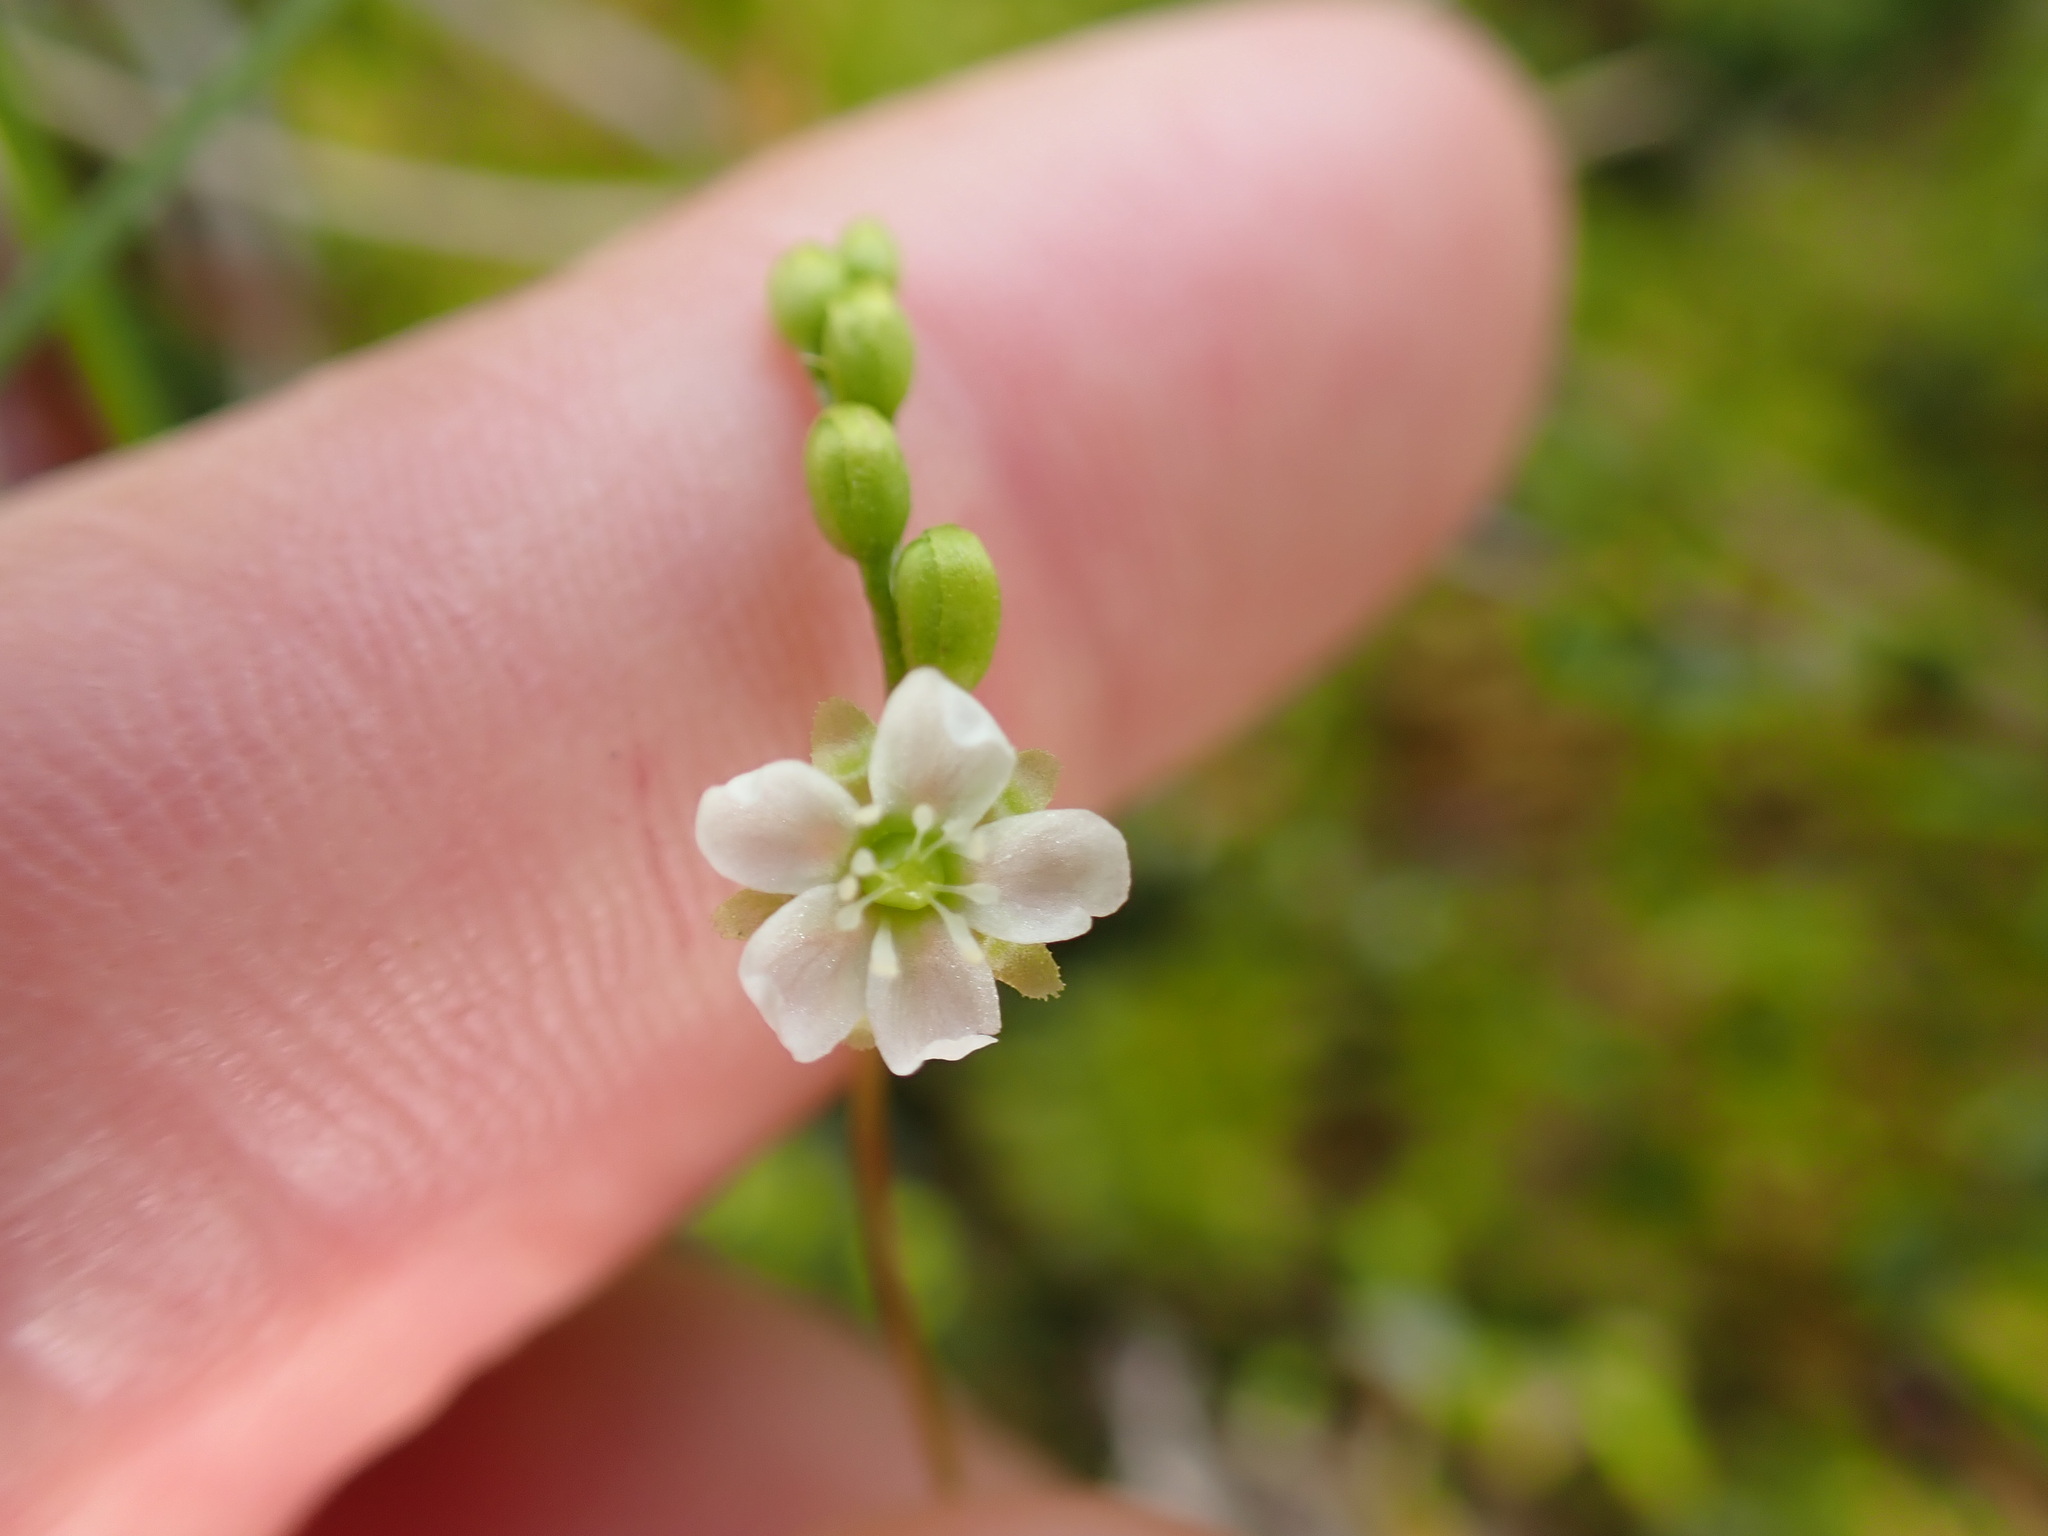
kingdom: Plantae
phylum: Tracheophyta
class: Magnoliopsida
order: Caryophyllales
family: Droseraceae
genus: Drosera
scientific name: Drosera rotundifolia
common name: Round-leaved sundew
